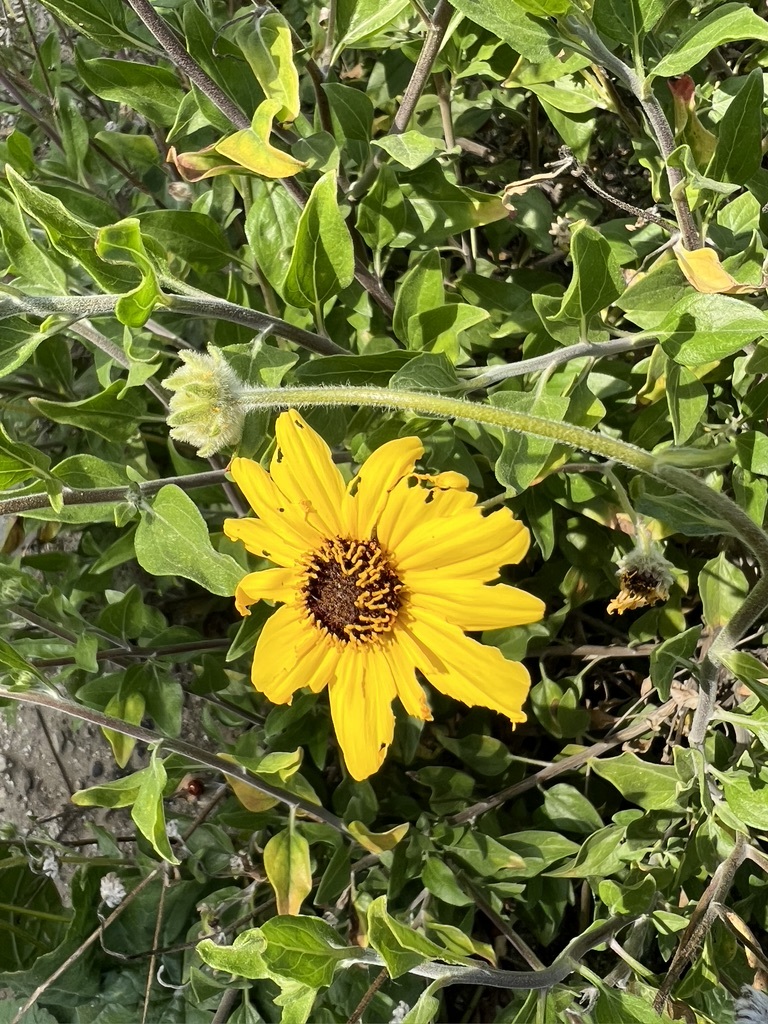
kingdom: Plantae
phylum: Tracheophyta
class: Magnoliopsida
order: Asterales
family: Asteraceae
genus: Encelia
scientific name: Encelia californica
